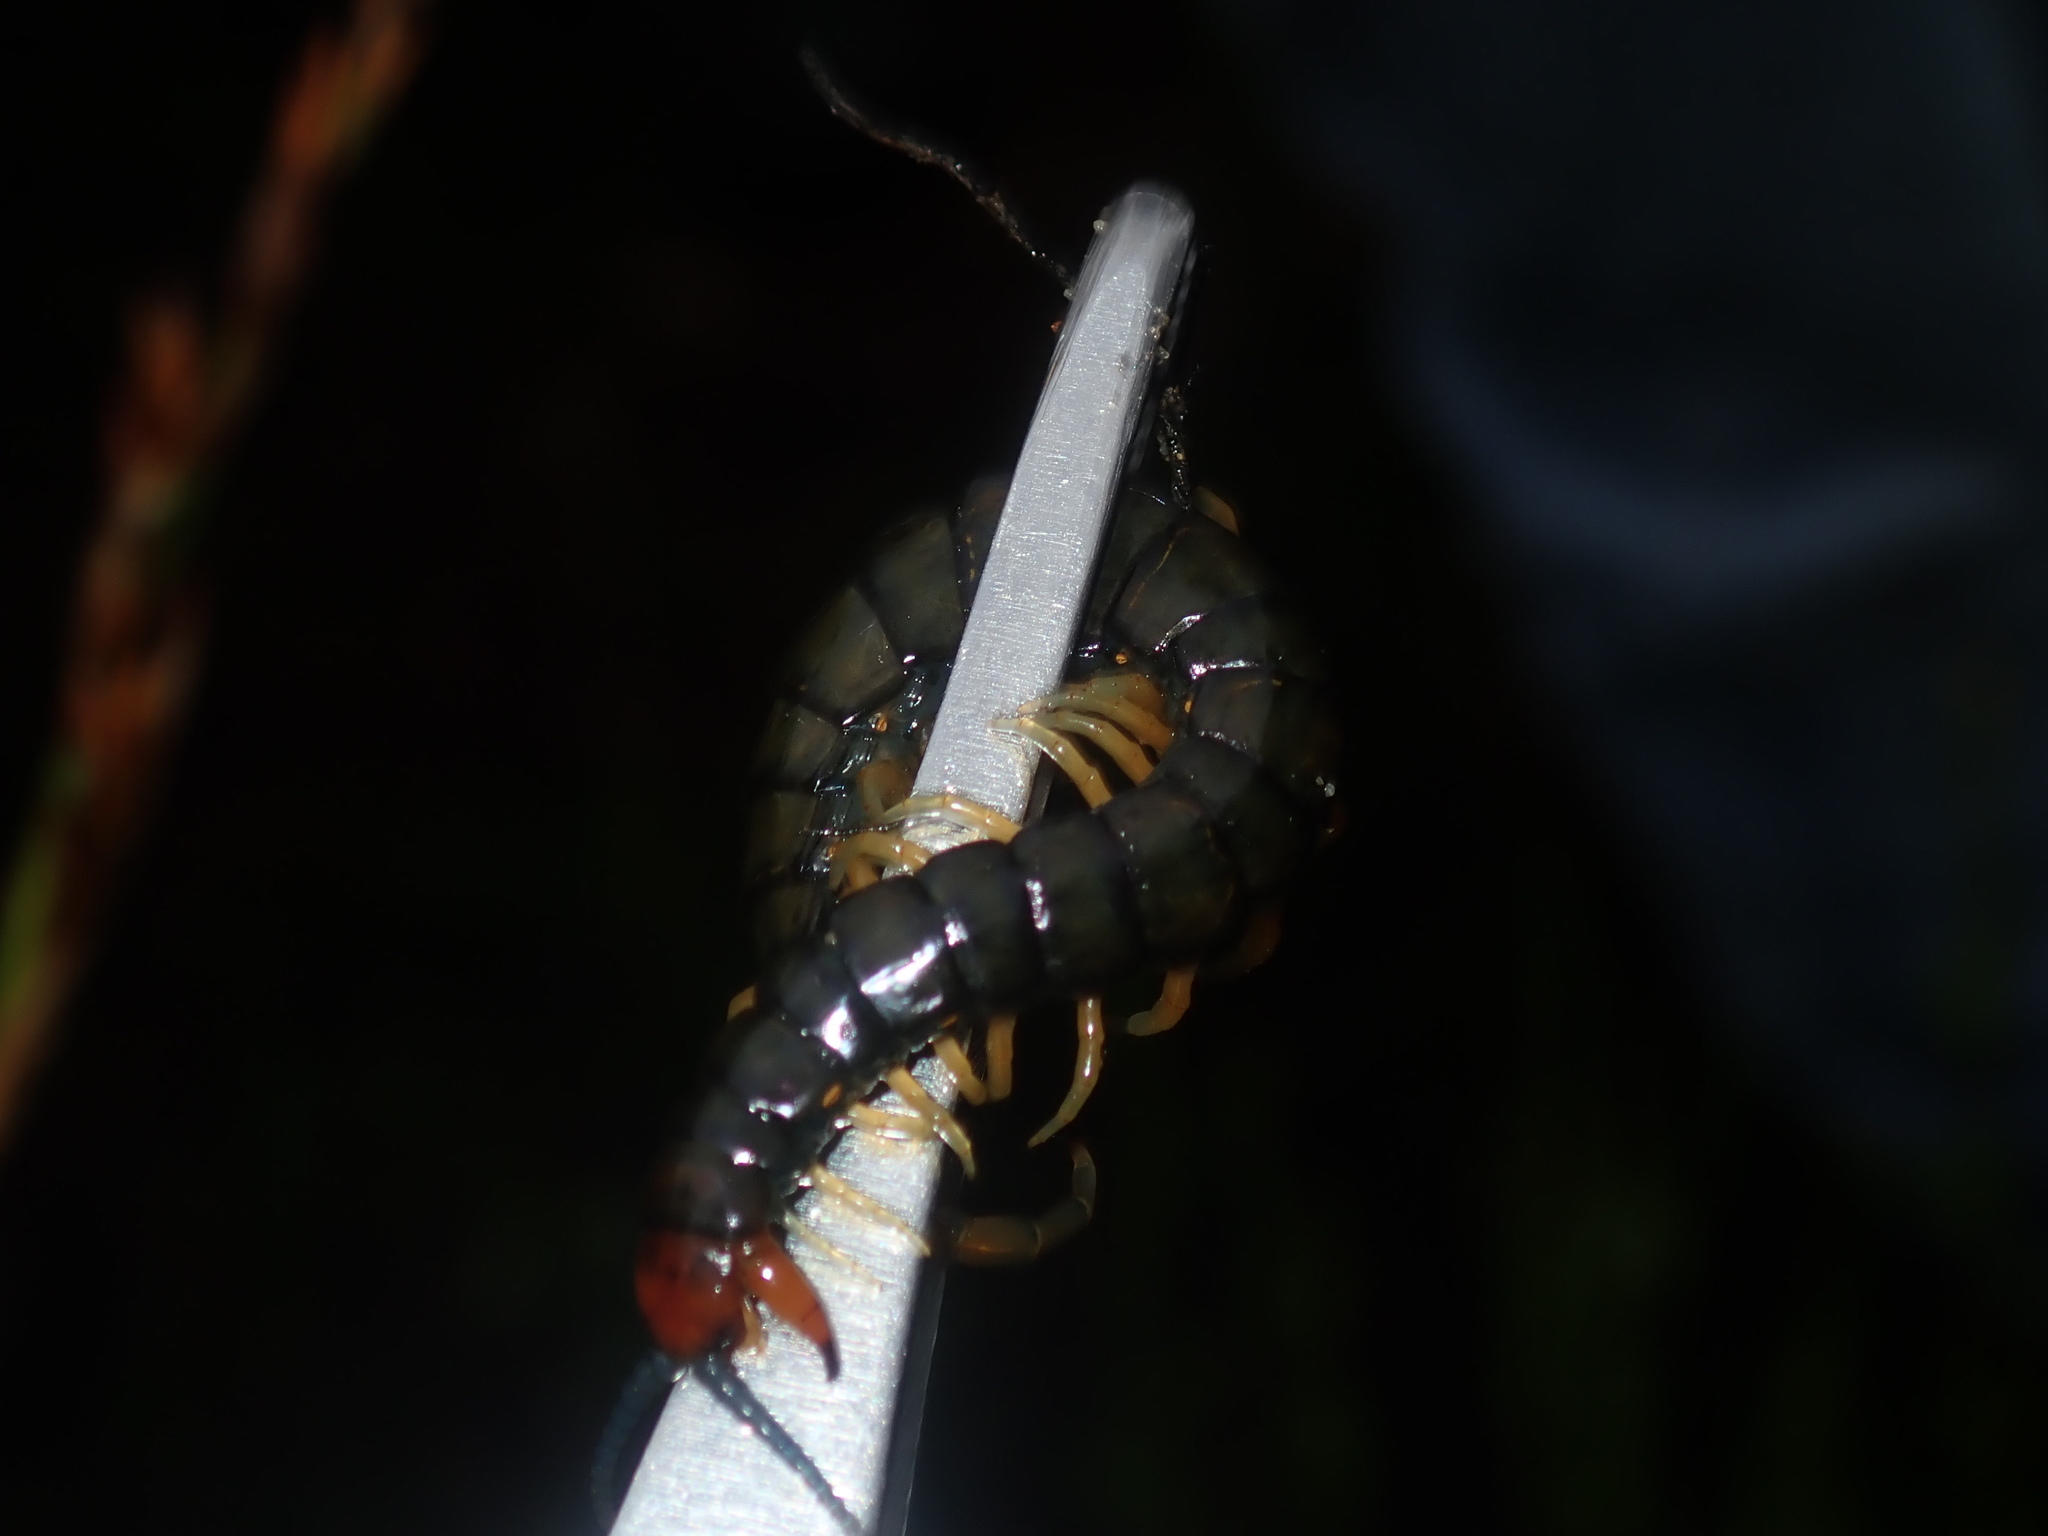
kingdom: Animalia
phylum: Arthropoda
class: Chilopoda
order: Scolopendromorpha
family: Scolopendridae
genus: Cormocephalus
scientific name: Cormocephalus westwoodi
